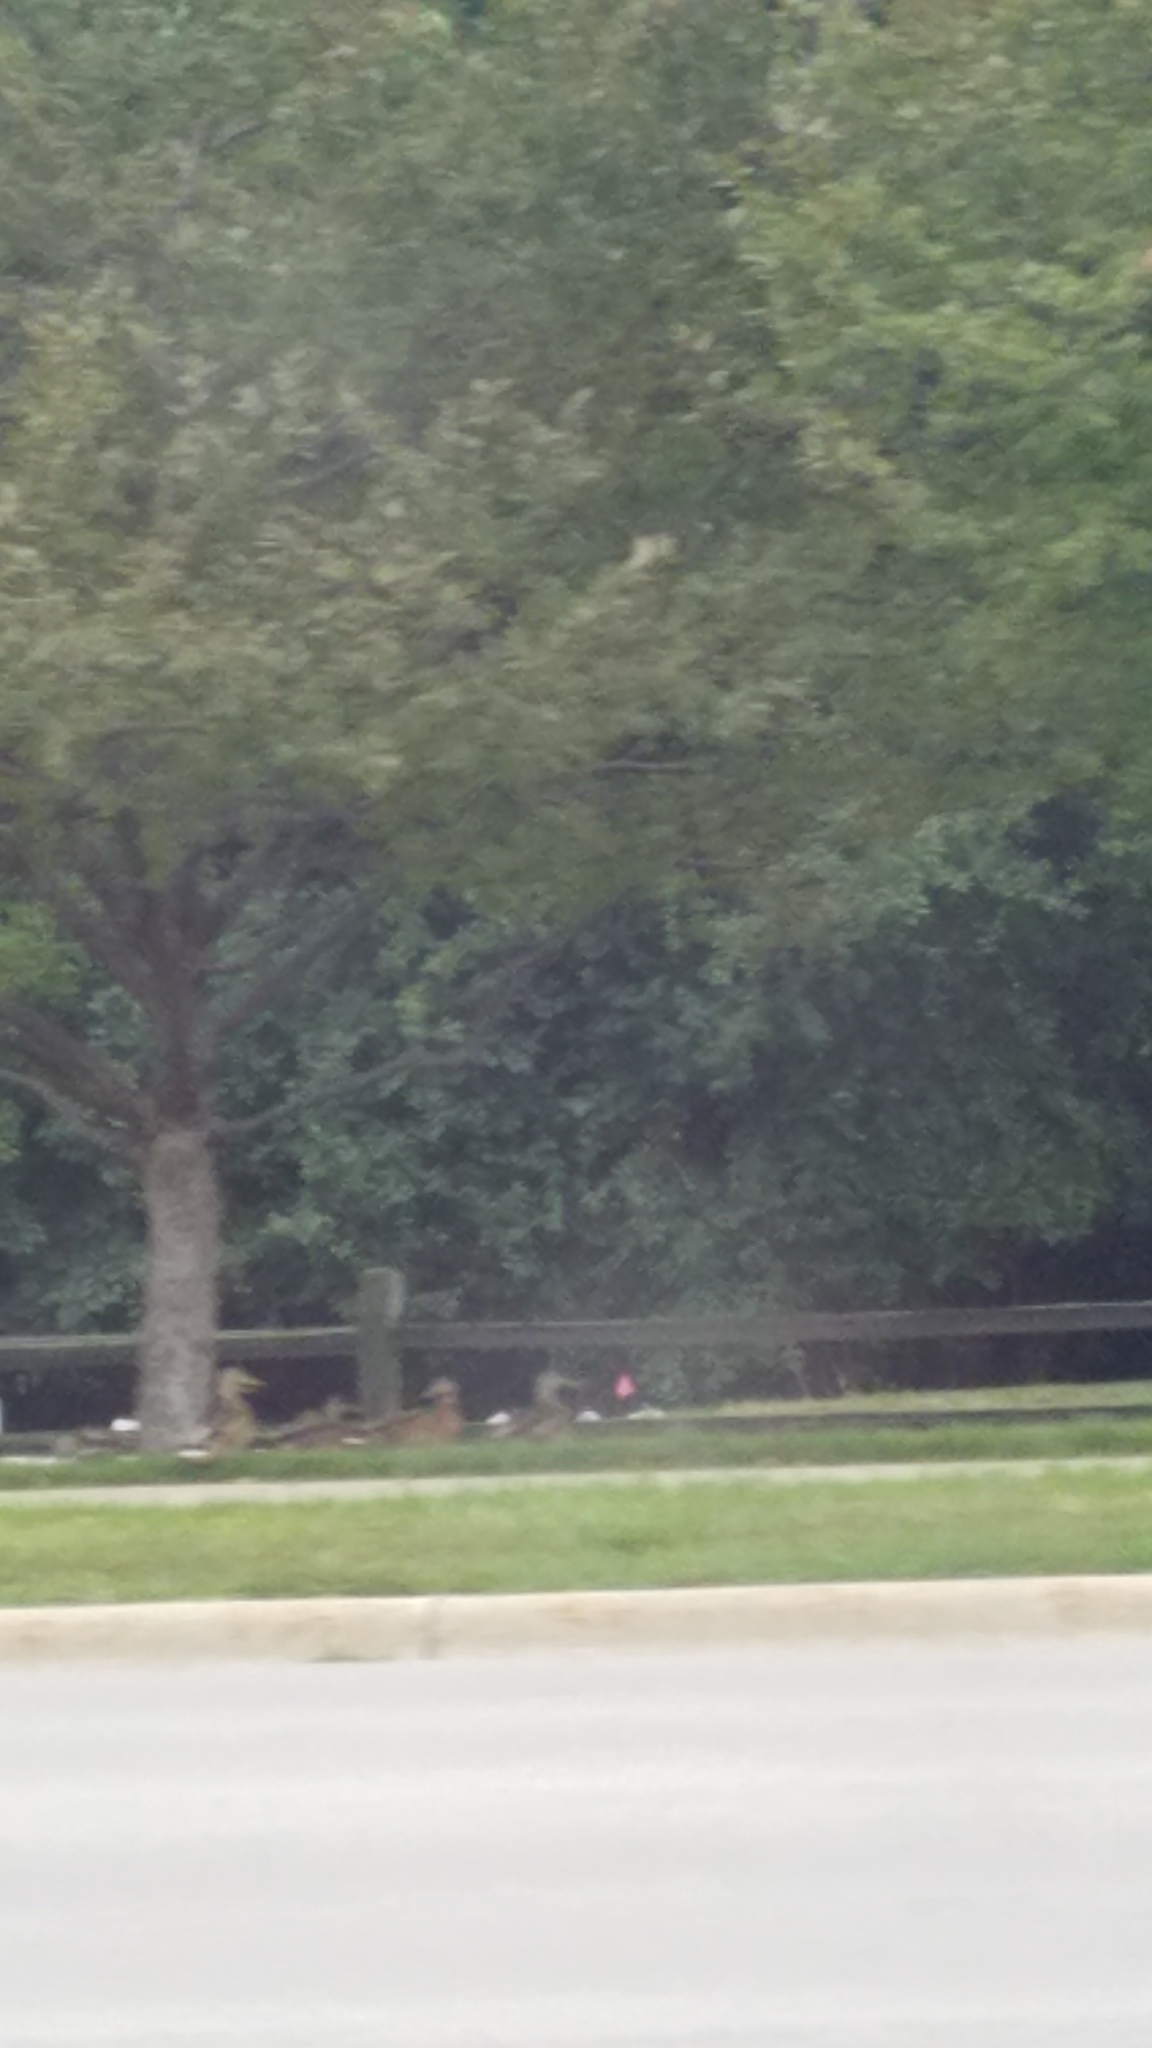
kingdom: Animalia
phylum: Chordata
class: Aves
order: Anseriformes
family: Anatidae
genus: Anas
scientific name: Anas platyrhynchos
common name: Mallard
